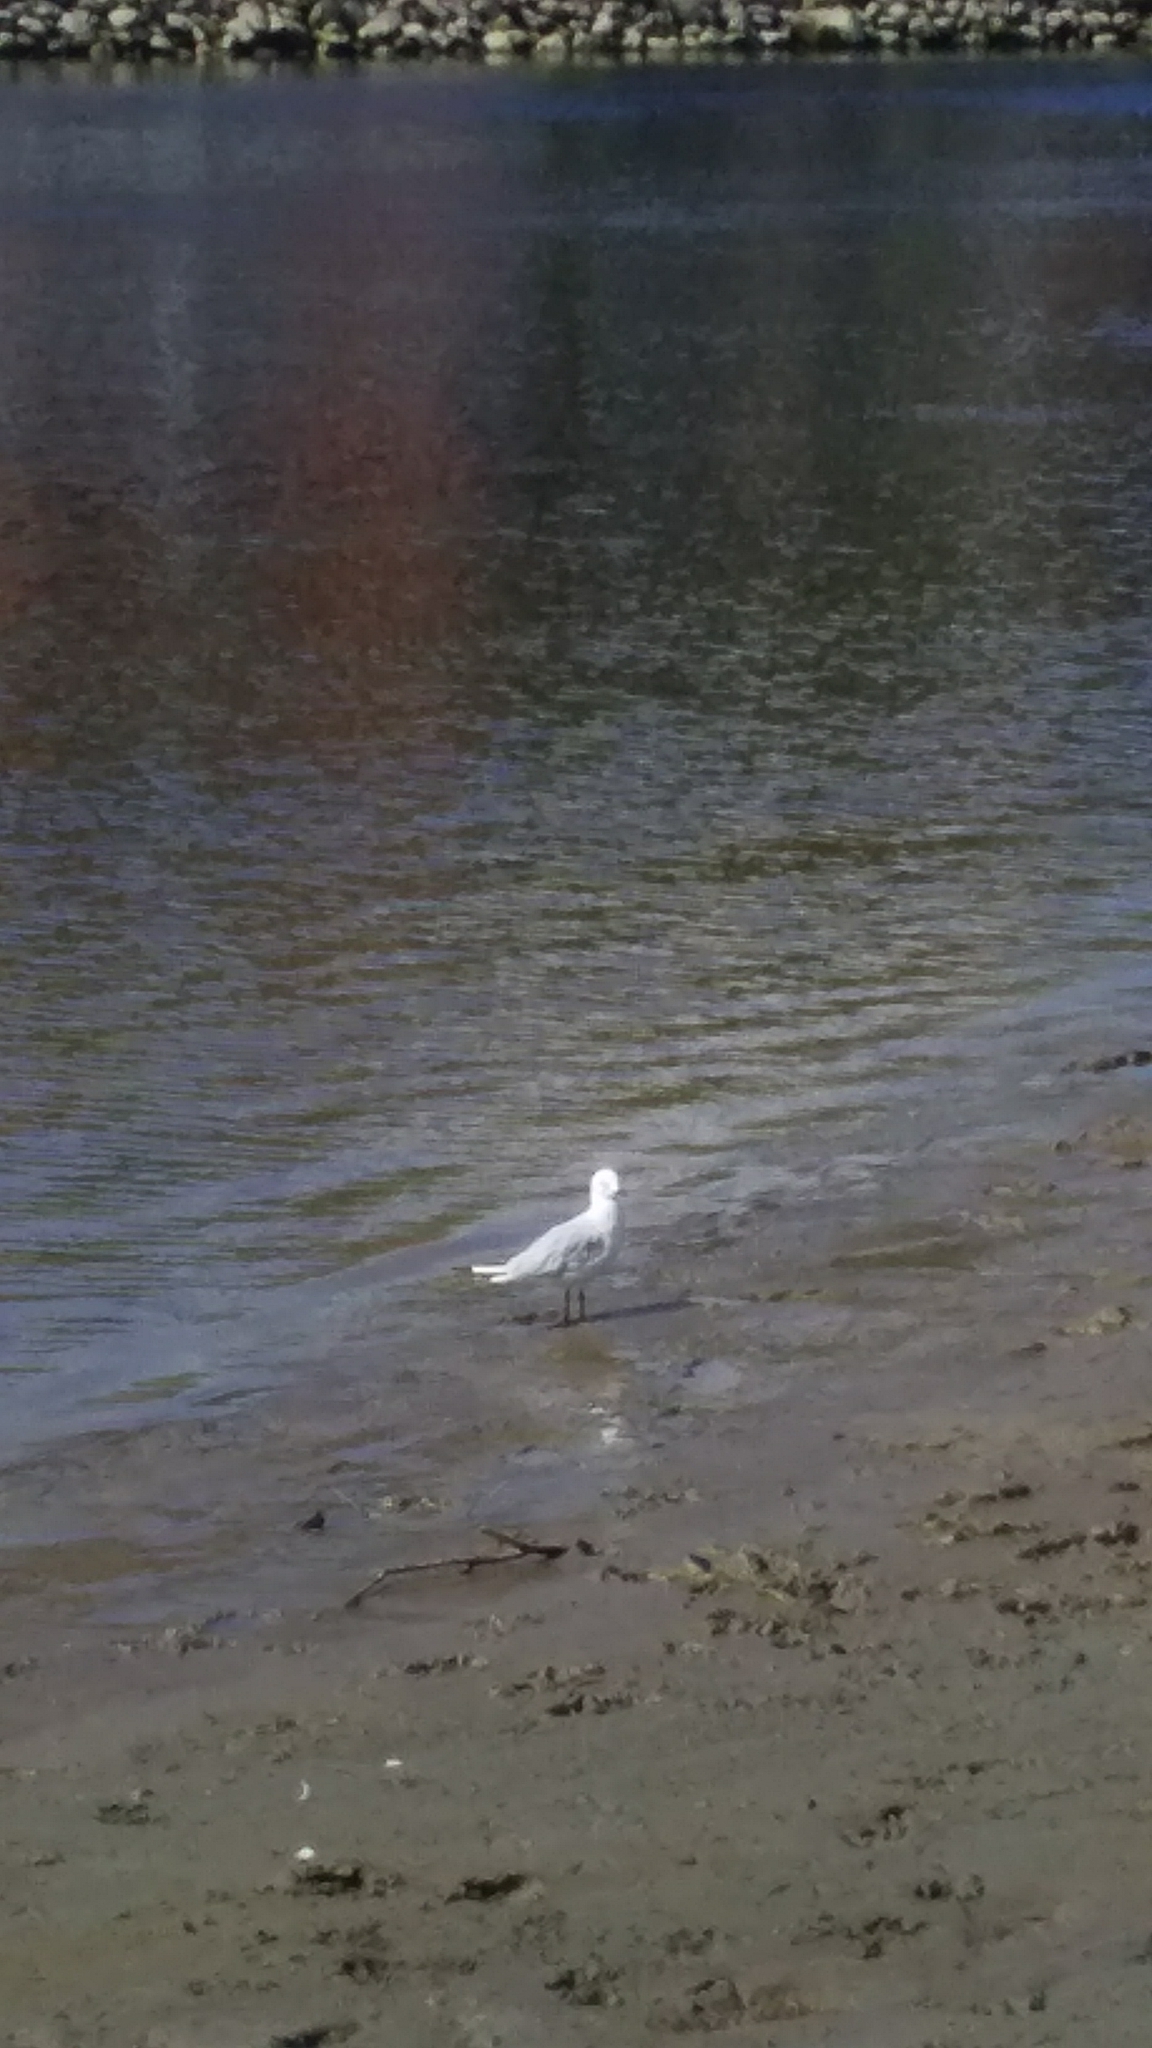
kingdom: Animalia
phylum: Chordata
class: Aves
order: Charadriiformes
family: Laridae
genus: Chroicocephalus
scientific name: Chroicocephalus bulleri
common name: Black-billed gull
